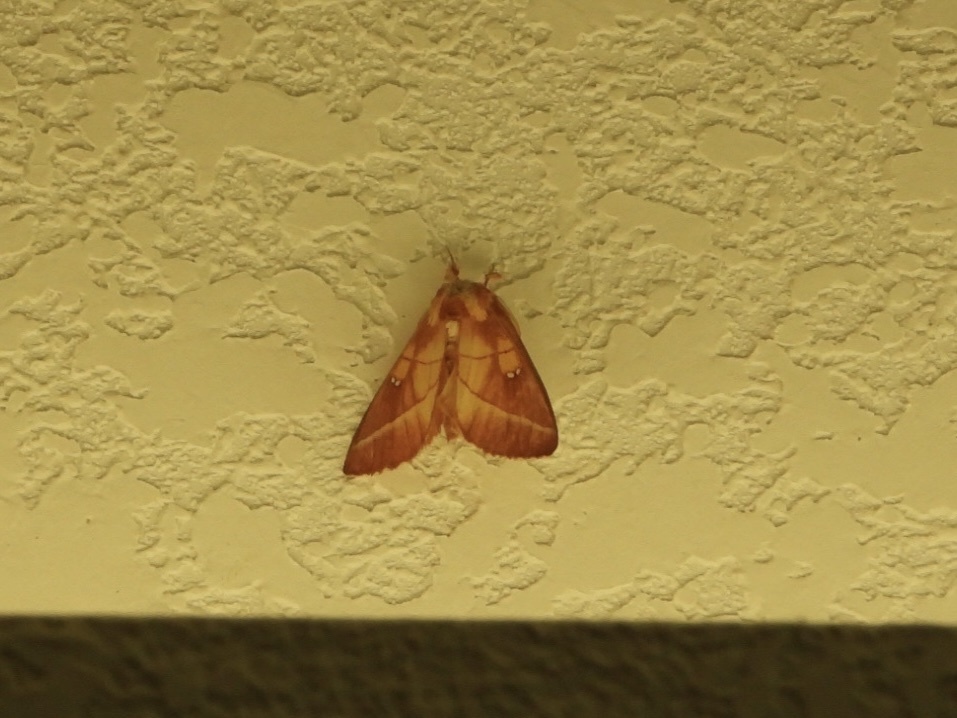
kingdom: Animalia
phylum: Arthropoda
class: Insecta
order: Lepidoptera
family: Notodontidae
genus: Nadata
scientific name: Nadata gibbosa
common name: White-dotted prominent
